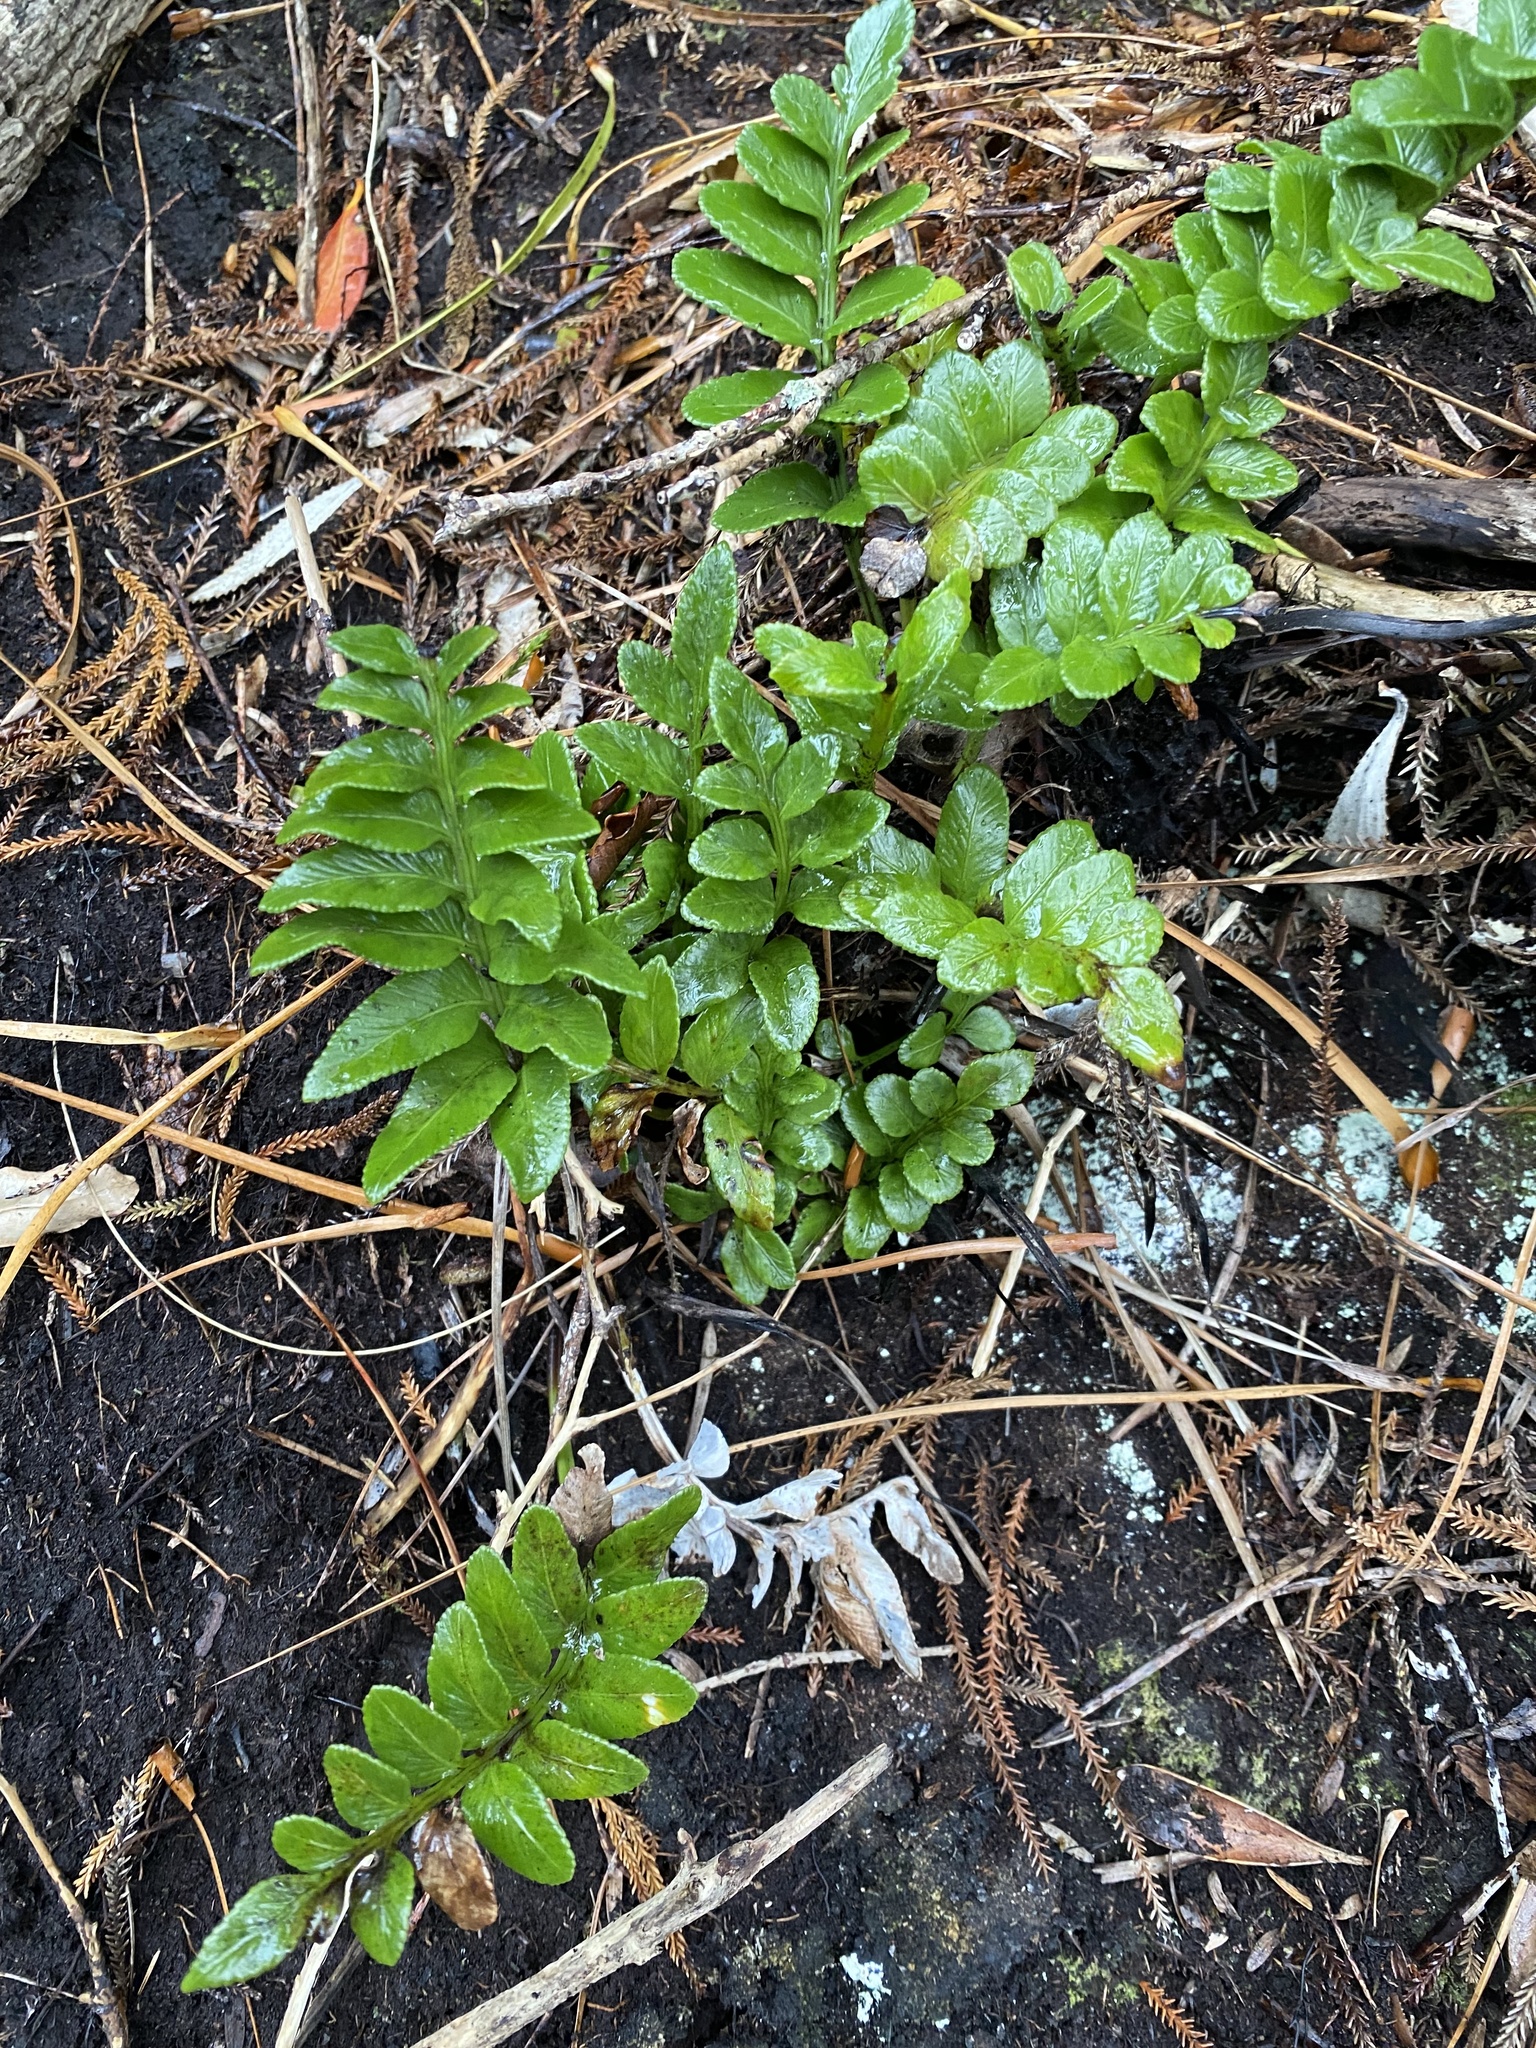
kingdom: Plantae
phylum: Tracheophyta
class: Polypodiopsida
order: Polypodiales
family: Aspleniaceae
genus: Asplenium
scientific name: Asplenium obtusatum
